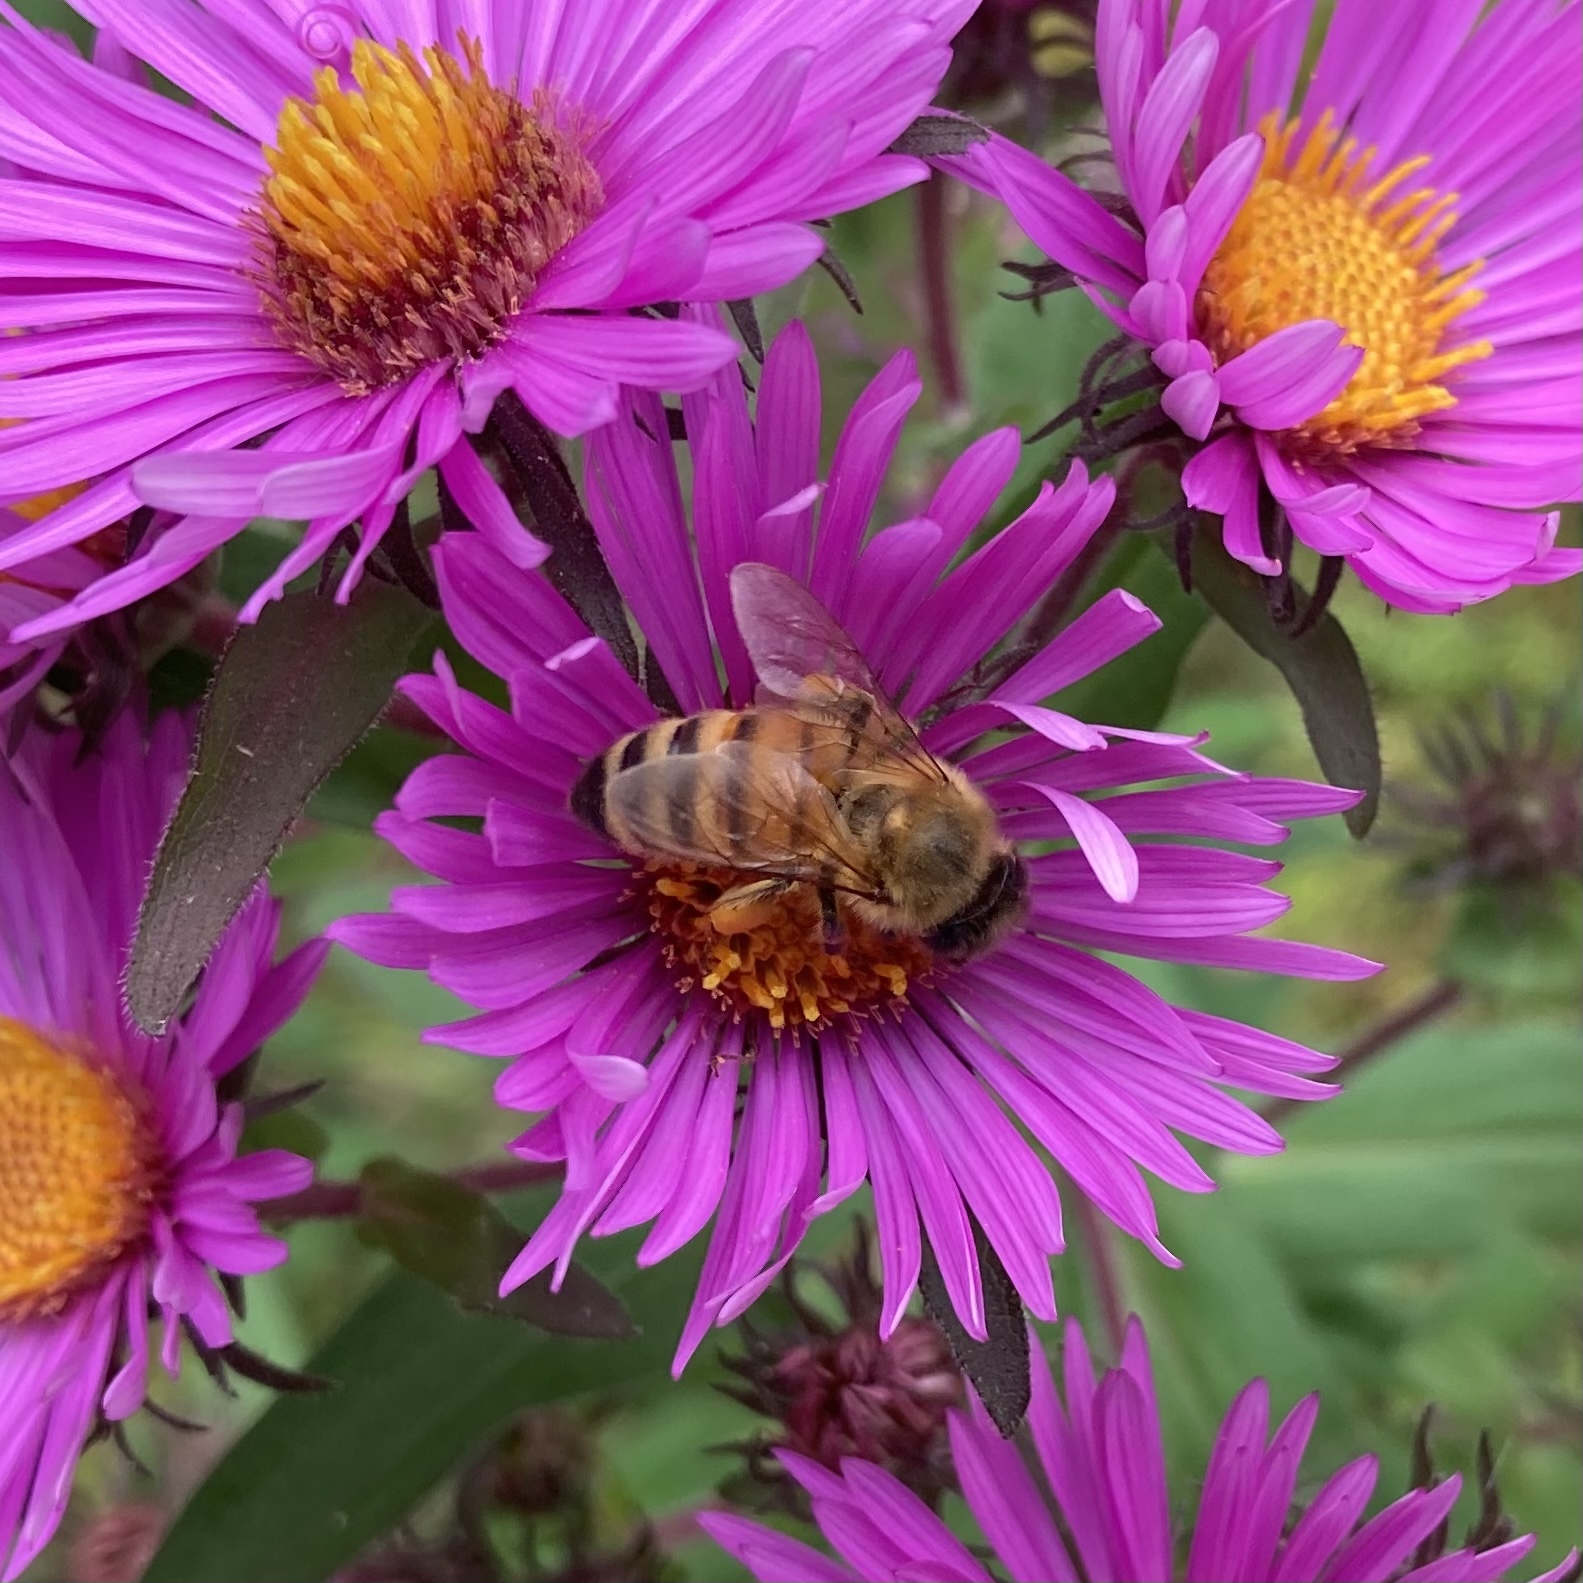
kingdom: Animalia
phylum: Arthropoda
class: Insecta
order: Hymenoptera
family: Apidae
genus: Apis
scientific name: Apis mellifera
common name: Honey bee
